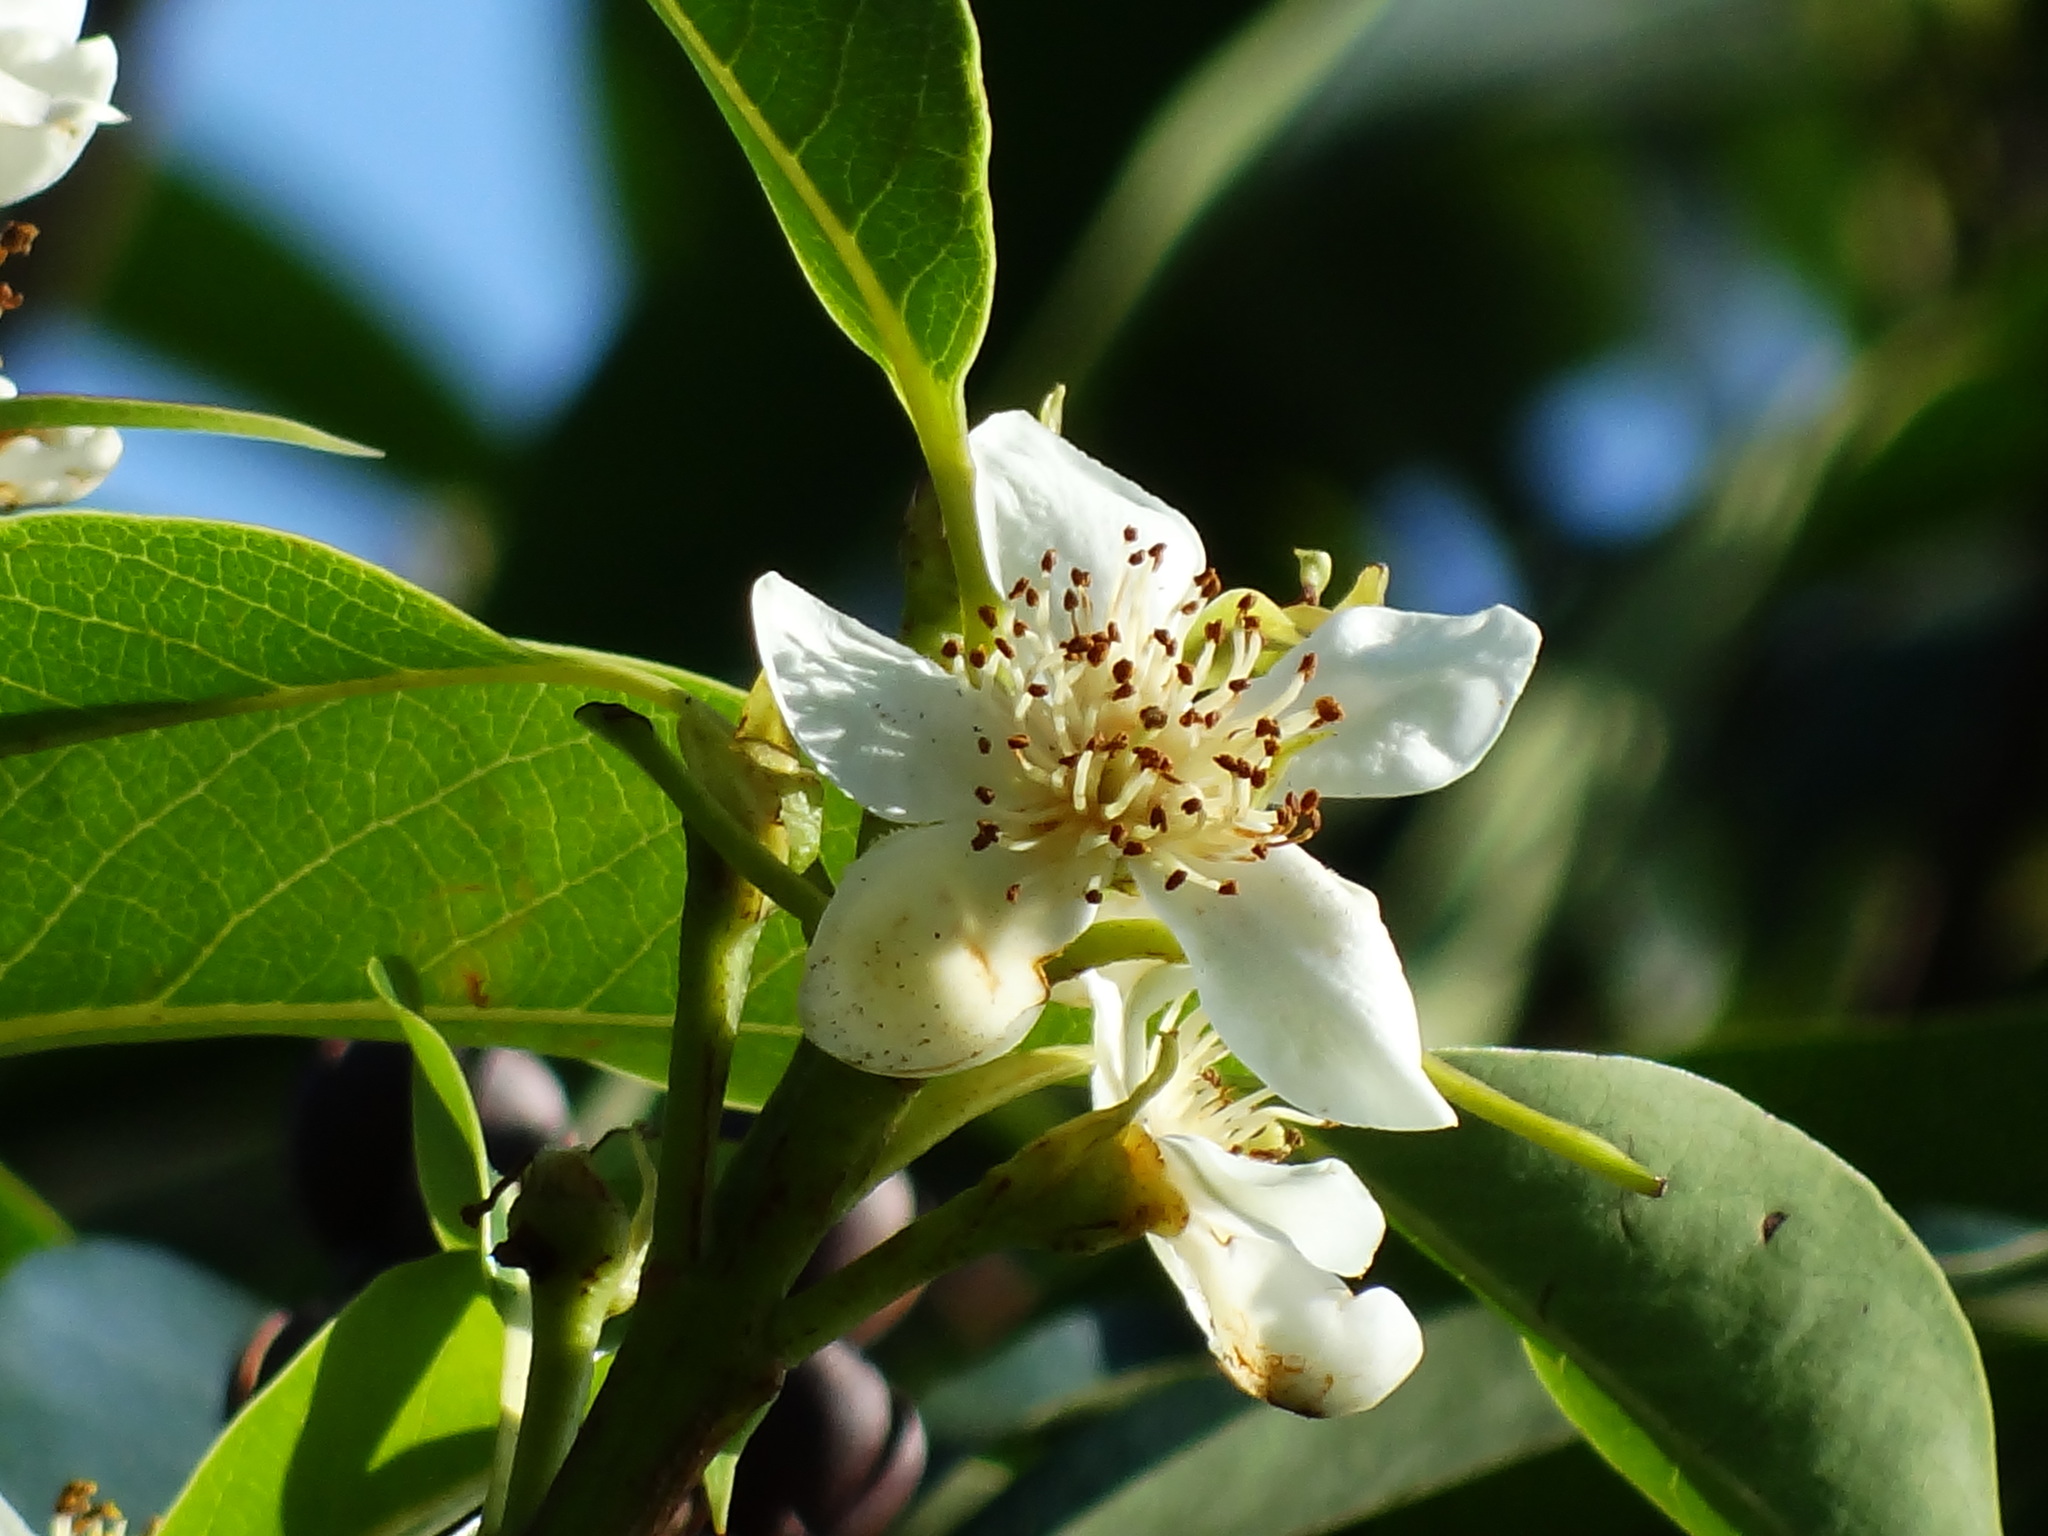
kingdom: Plantae
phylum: Tracheophyta
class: Magnoliopsida
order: Ericales
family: Theaceae
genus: Schima
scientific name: Schima superba
